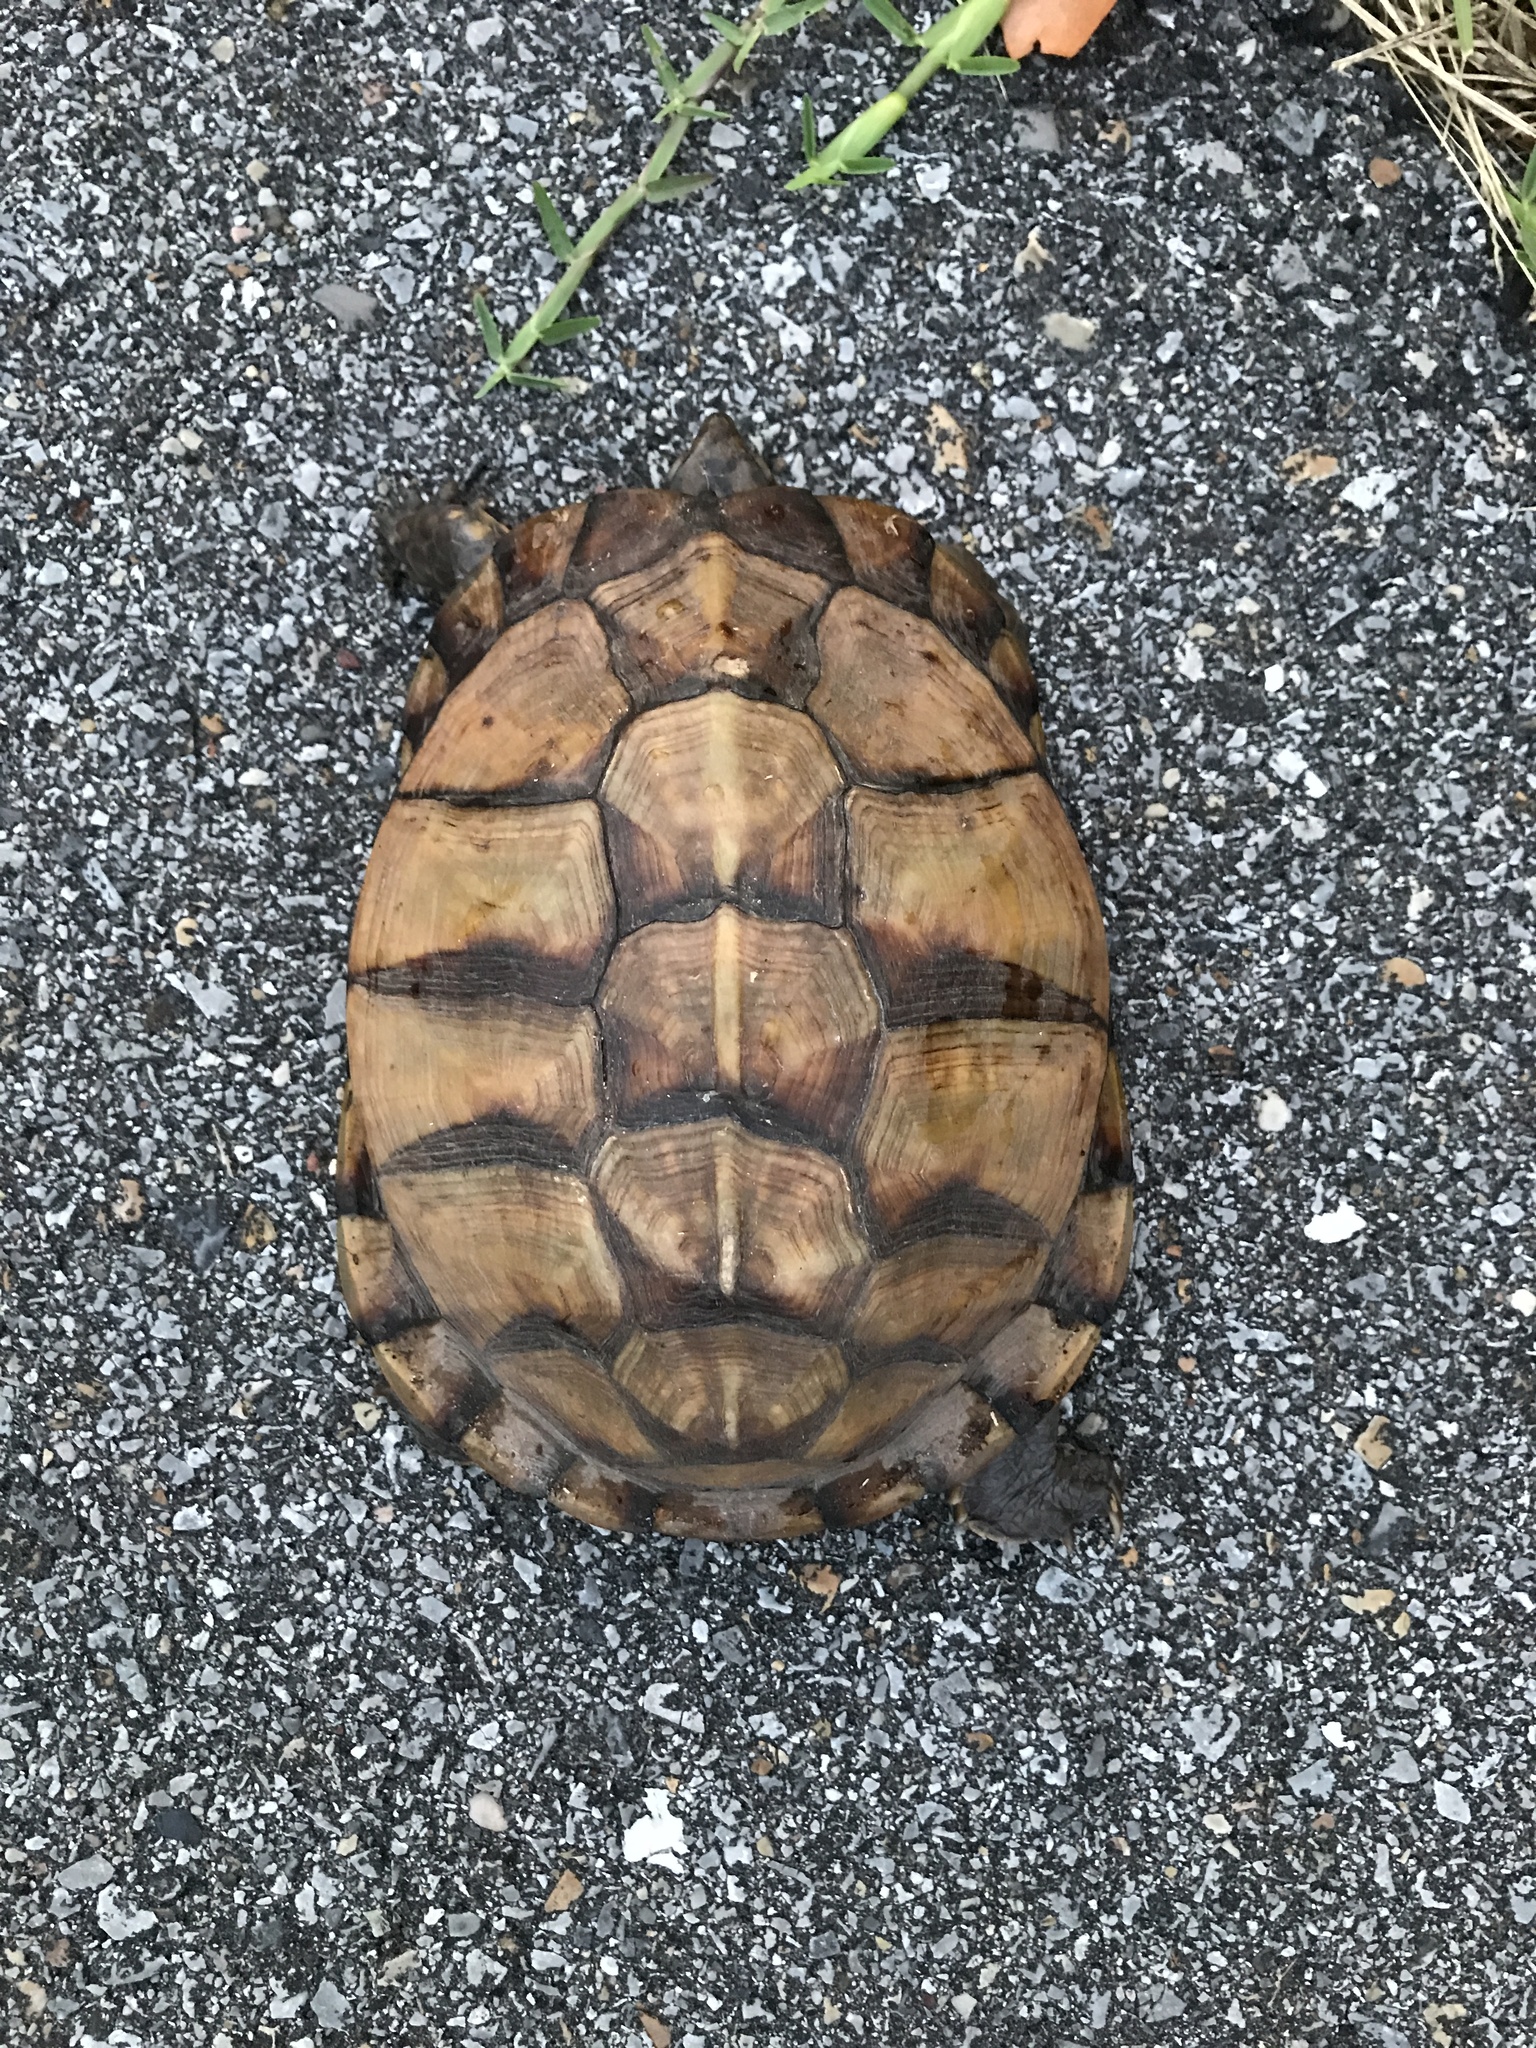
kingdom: Animalia
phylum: Chordata
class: Testudines
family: Emydidae
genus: Terrapene
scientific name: Terrapene carolina
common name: Common box turtle
